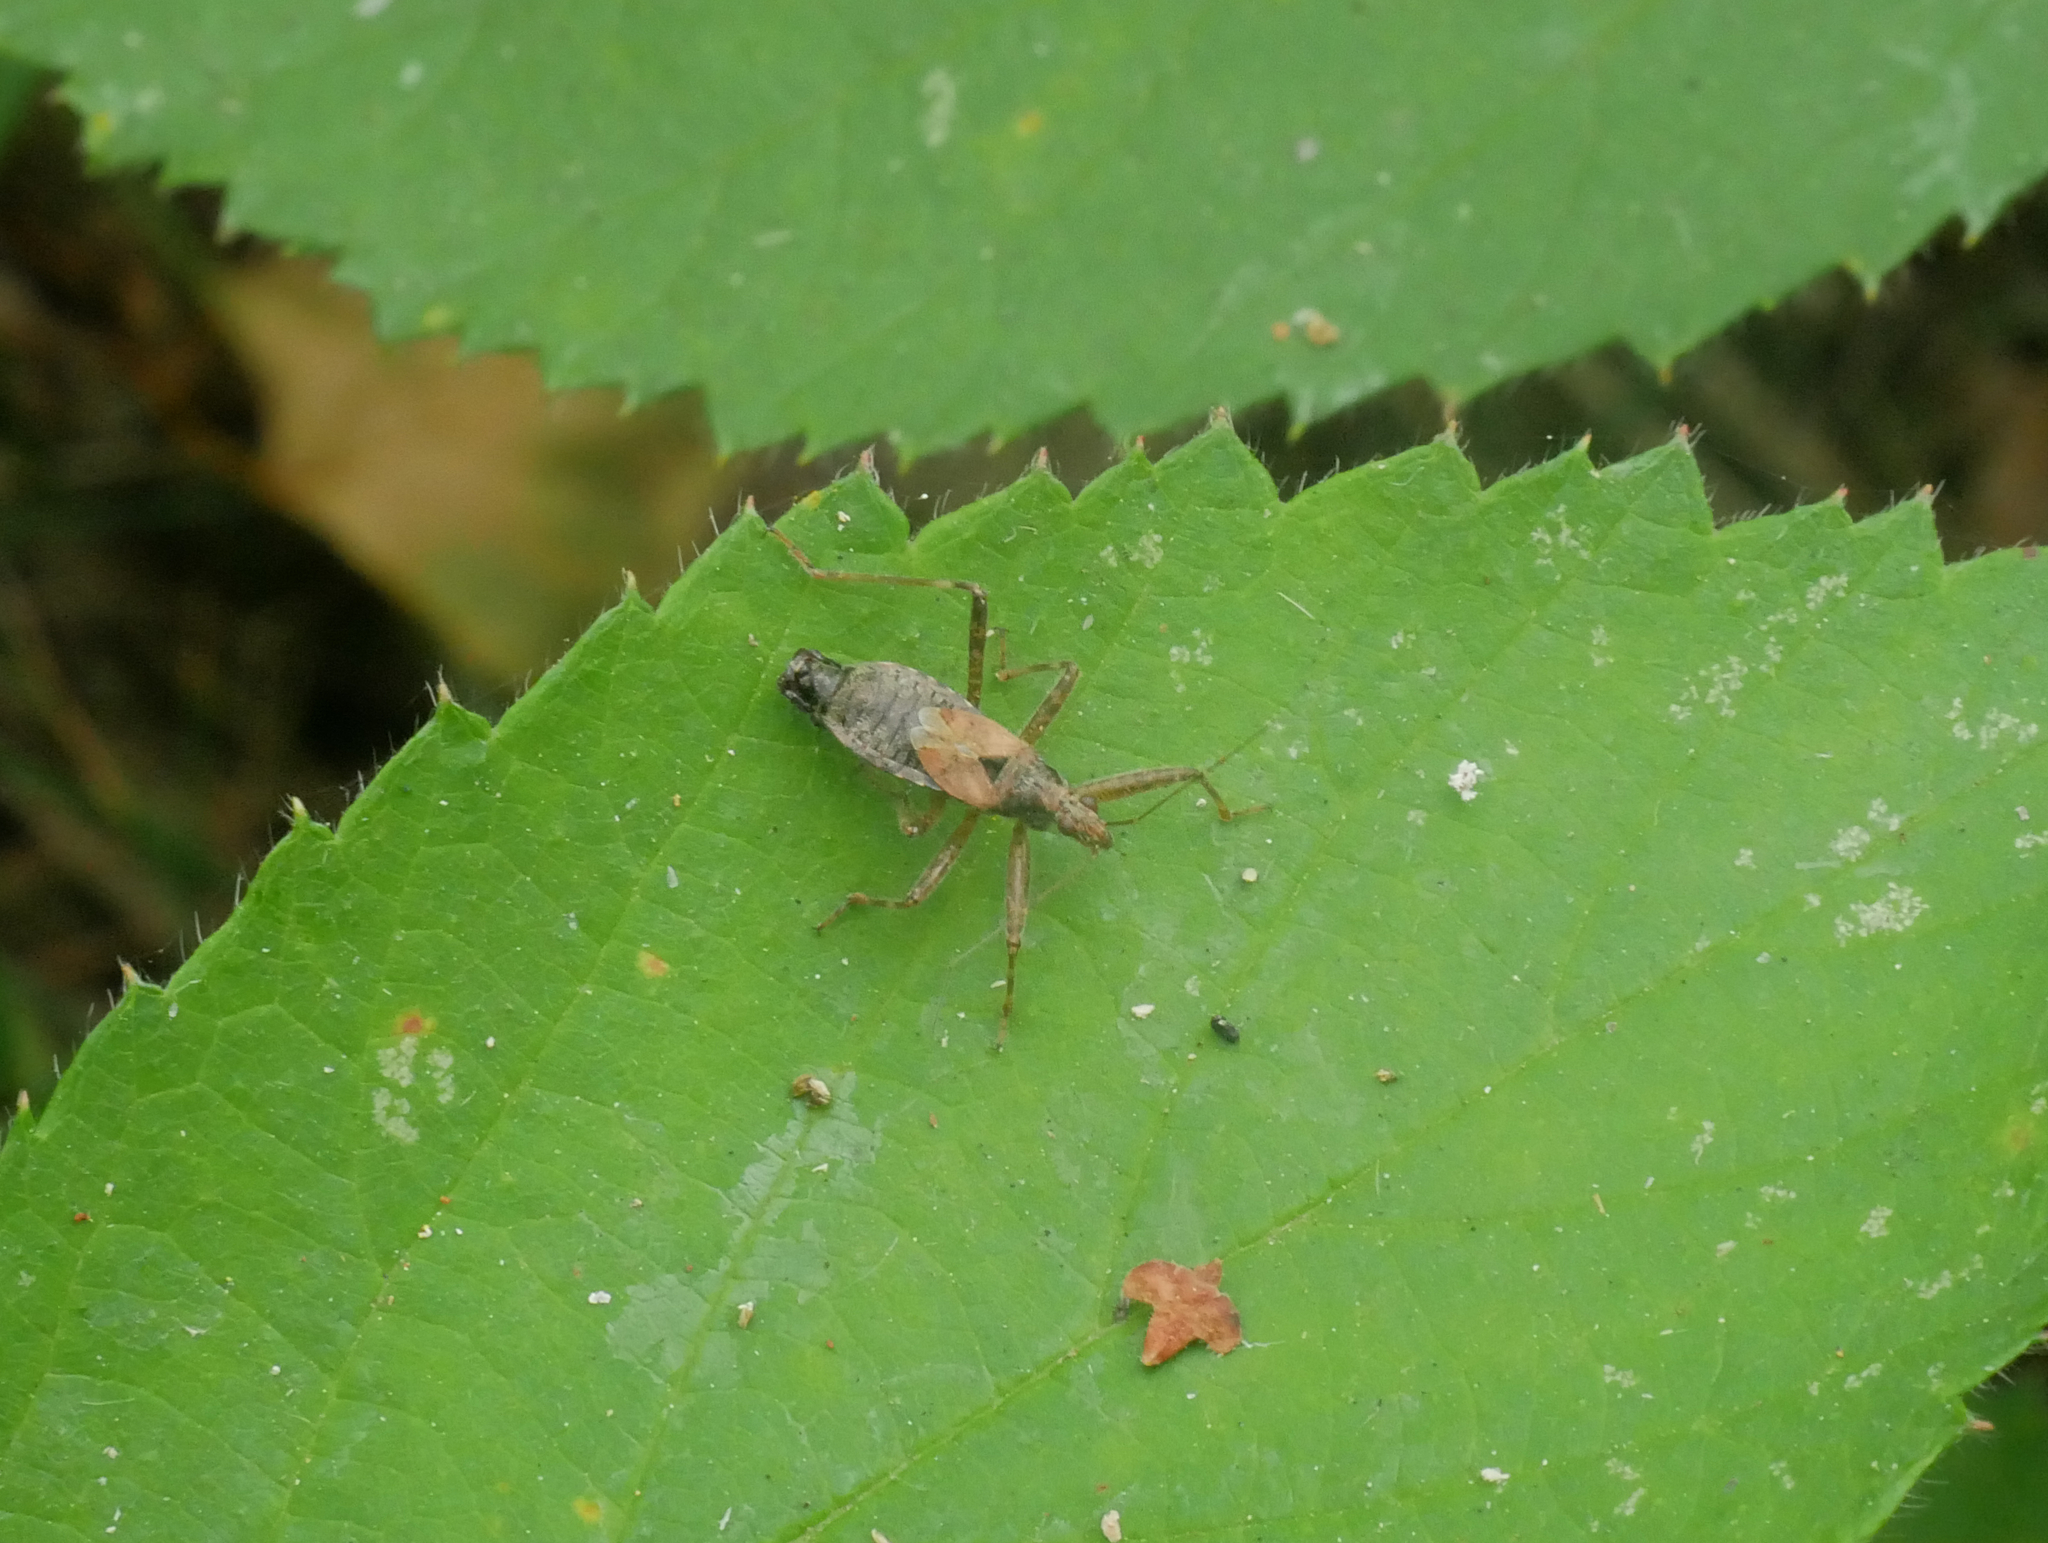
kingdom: Animalia
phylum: Arthropoda
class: Insecta
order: Hemiptera
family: Nabidae
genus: Himacerus
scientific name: Himacerus apterus
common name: Tree damsel bug
